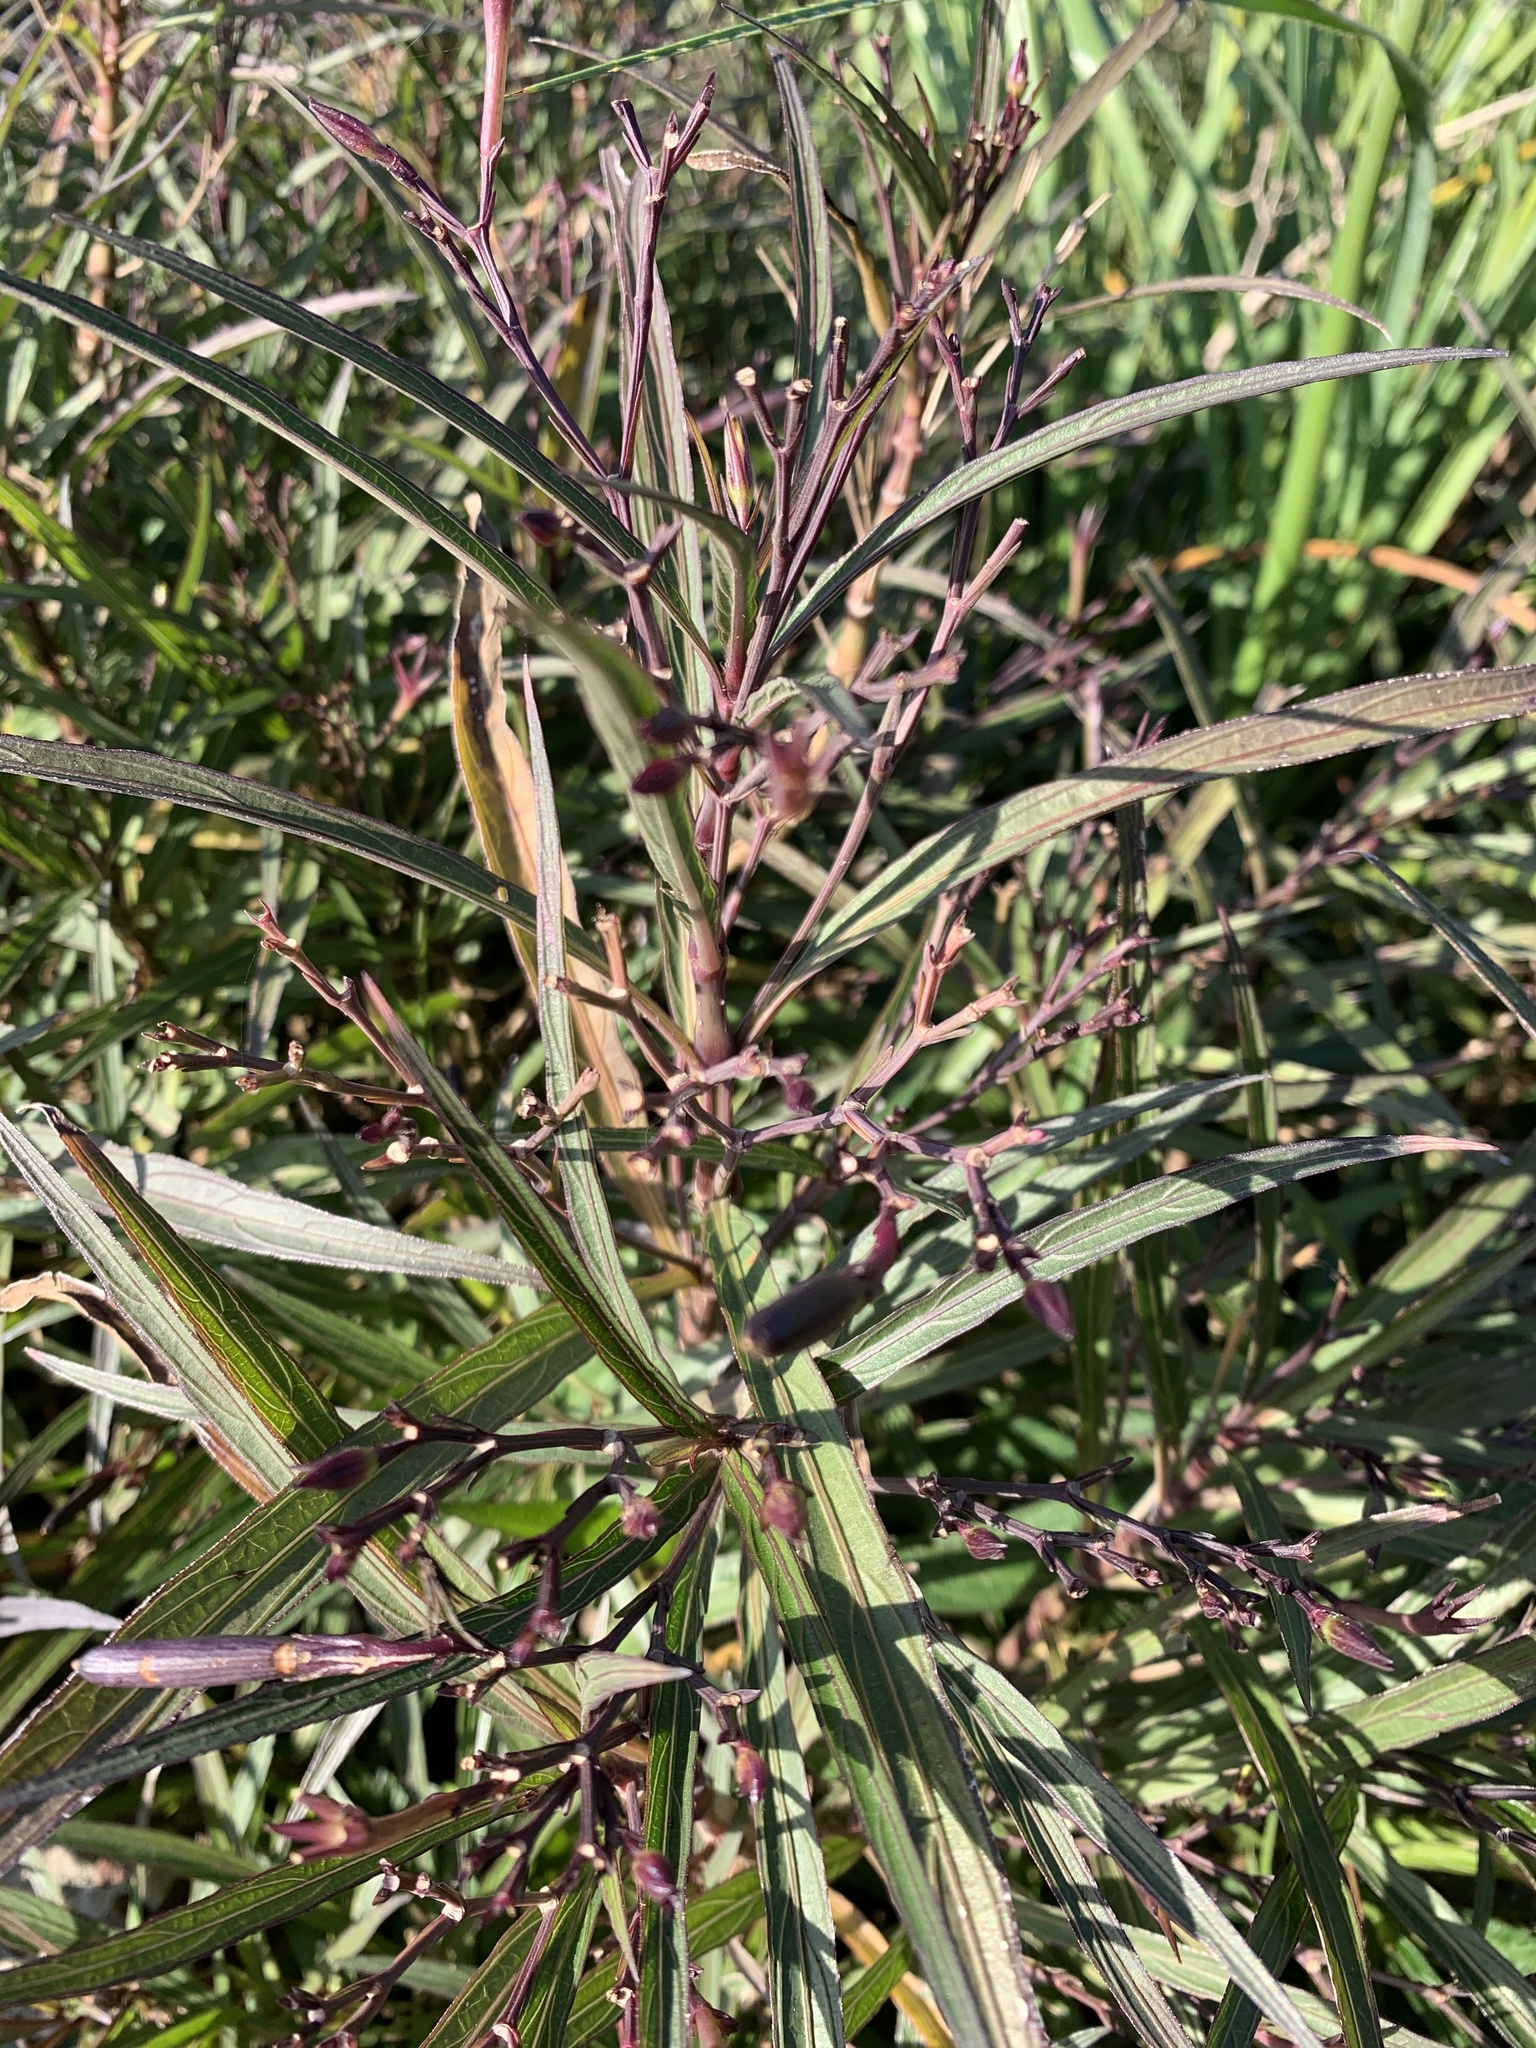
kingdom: Plantae
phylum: Tracheophyta
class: Magnoliopsida
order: Lamiales
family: Acanthaceae
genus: Ruellia
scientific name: Ruellia simplex
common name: Softseed wild petunia
